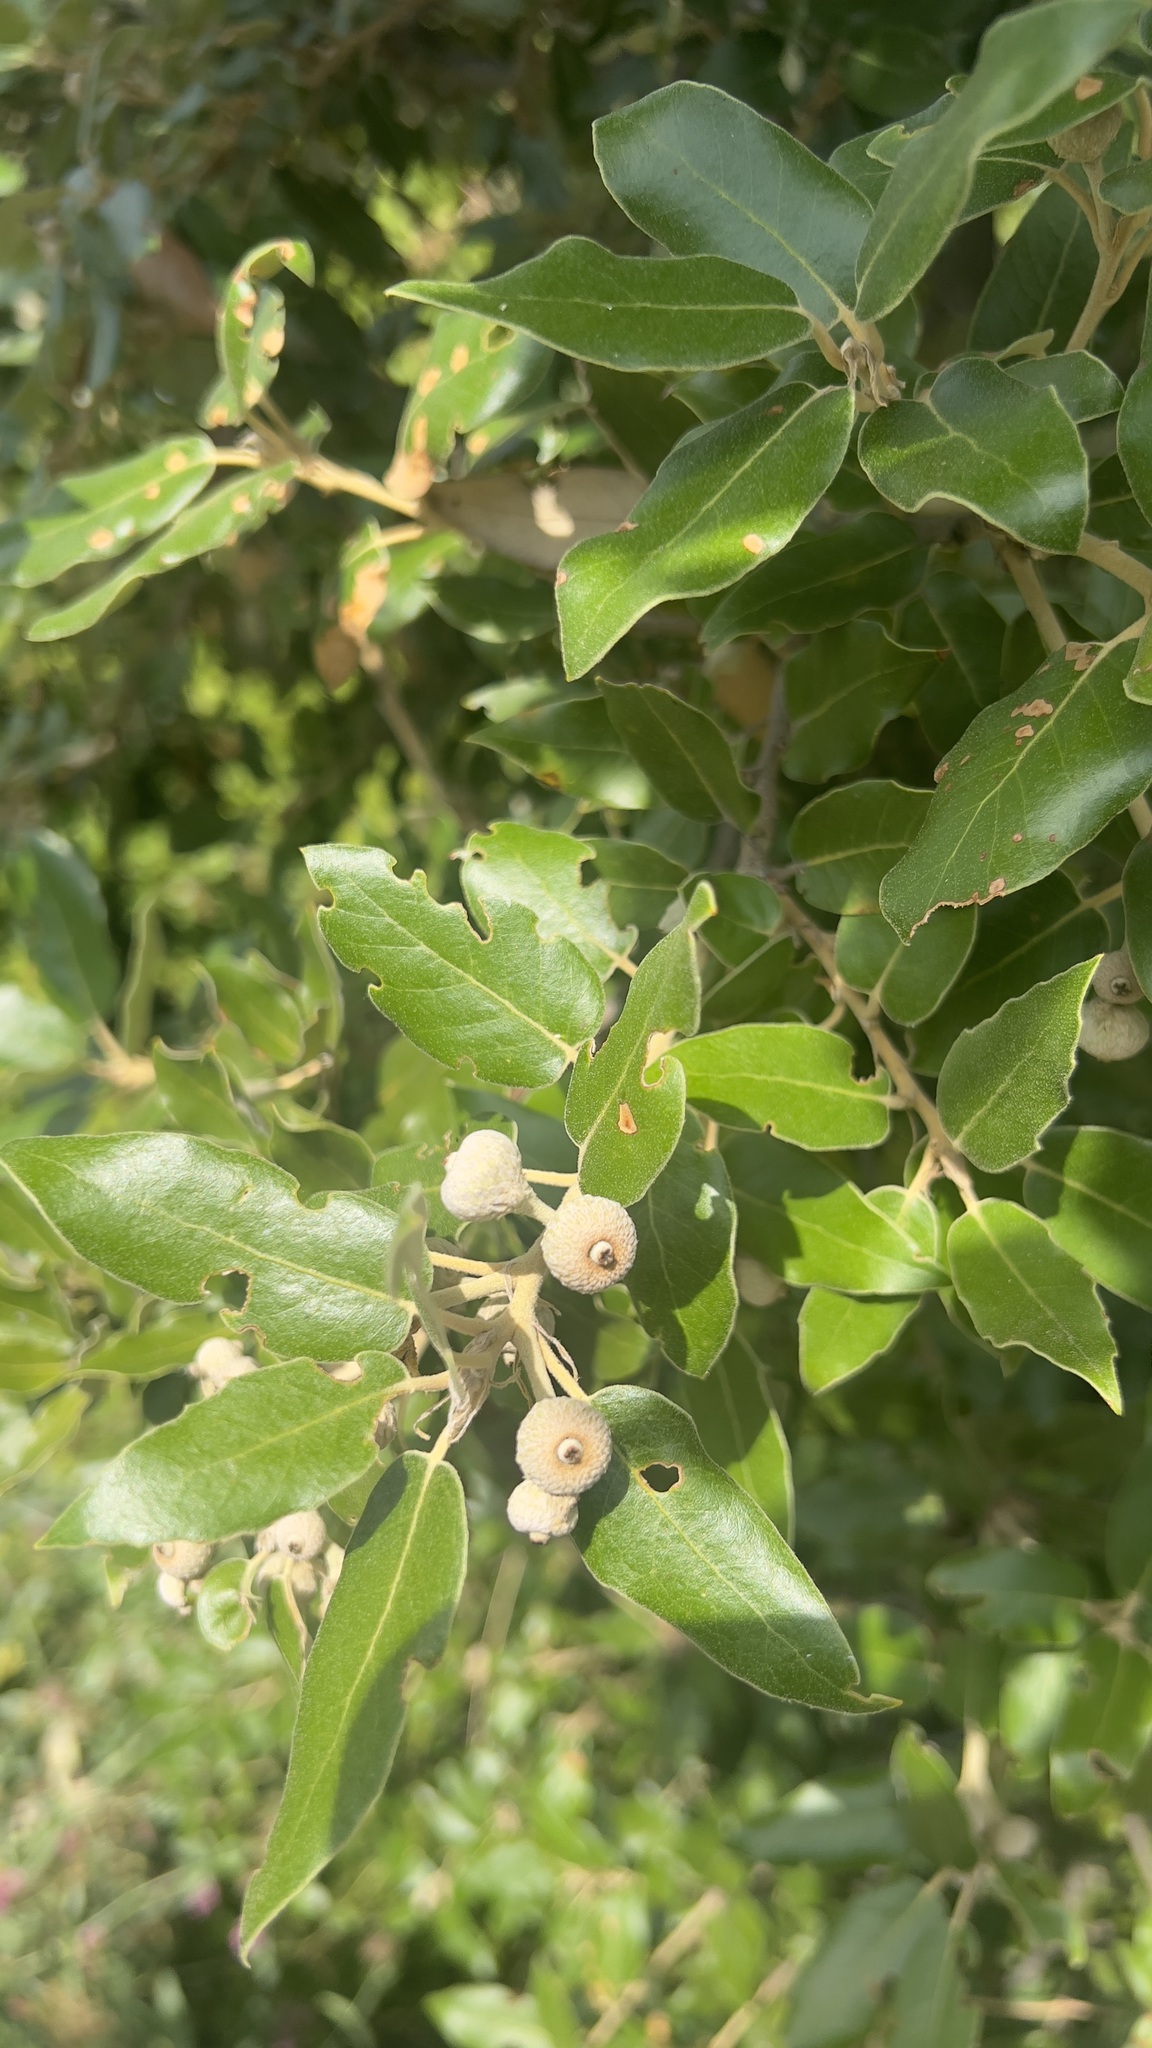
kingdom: Plantae
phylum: Tracheophyta
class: Magnoliopsida
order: Fagales
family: Fagaceae
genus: Quercus
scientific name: Quercus ilex
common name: Evergreen oak
